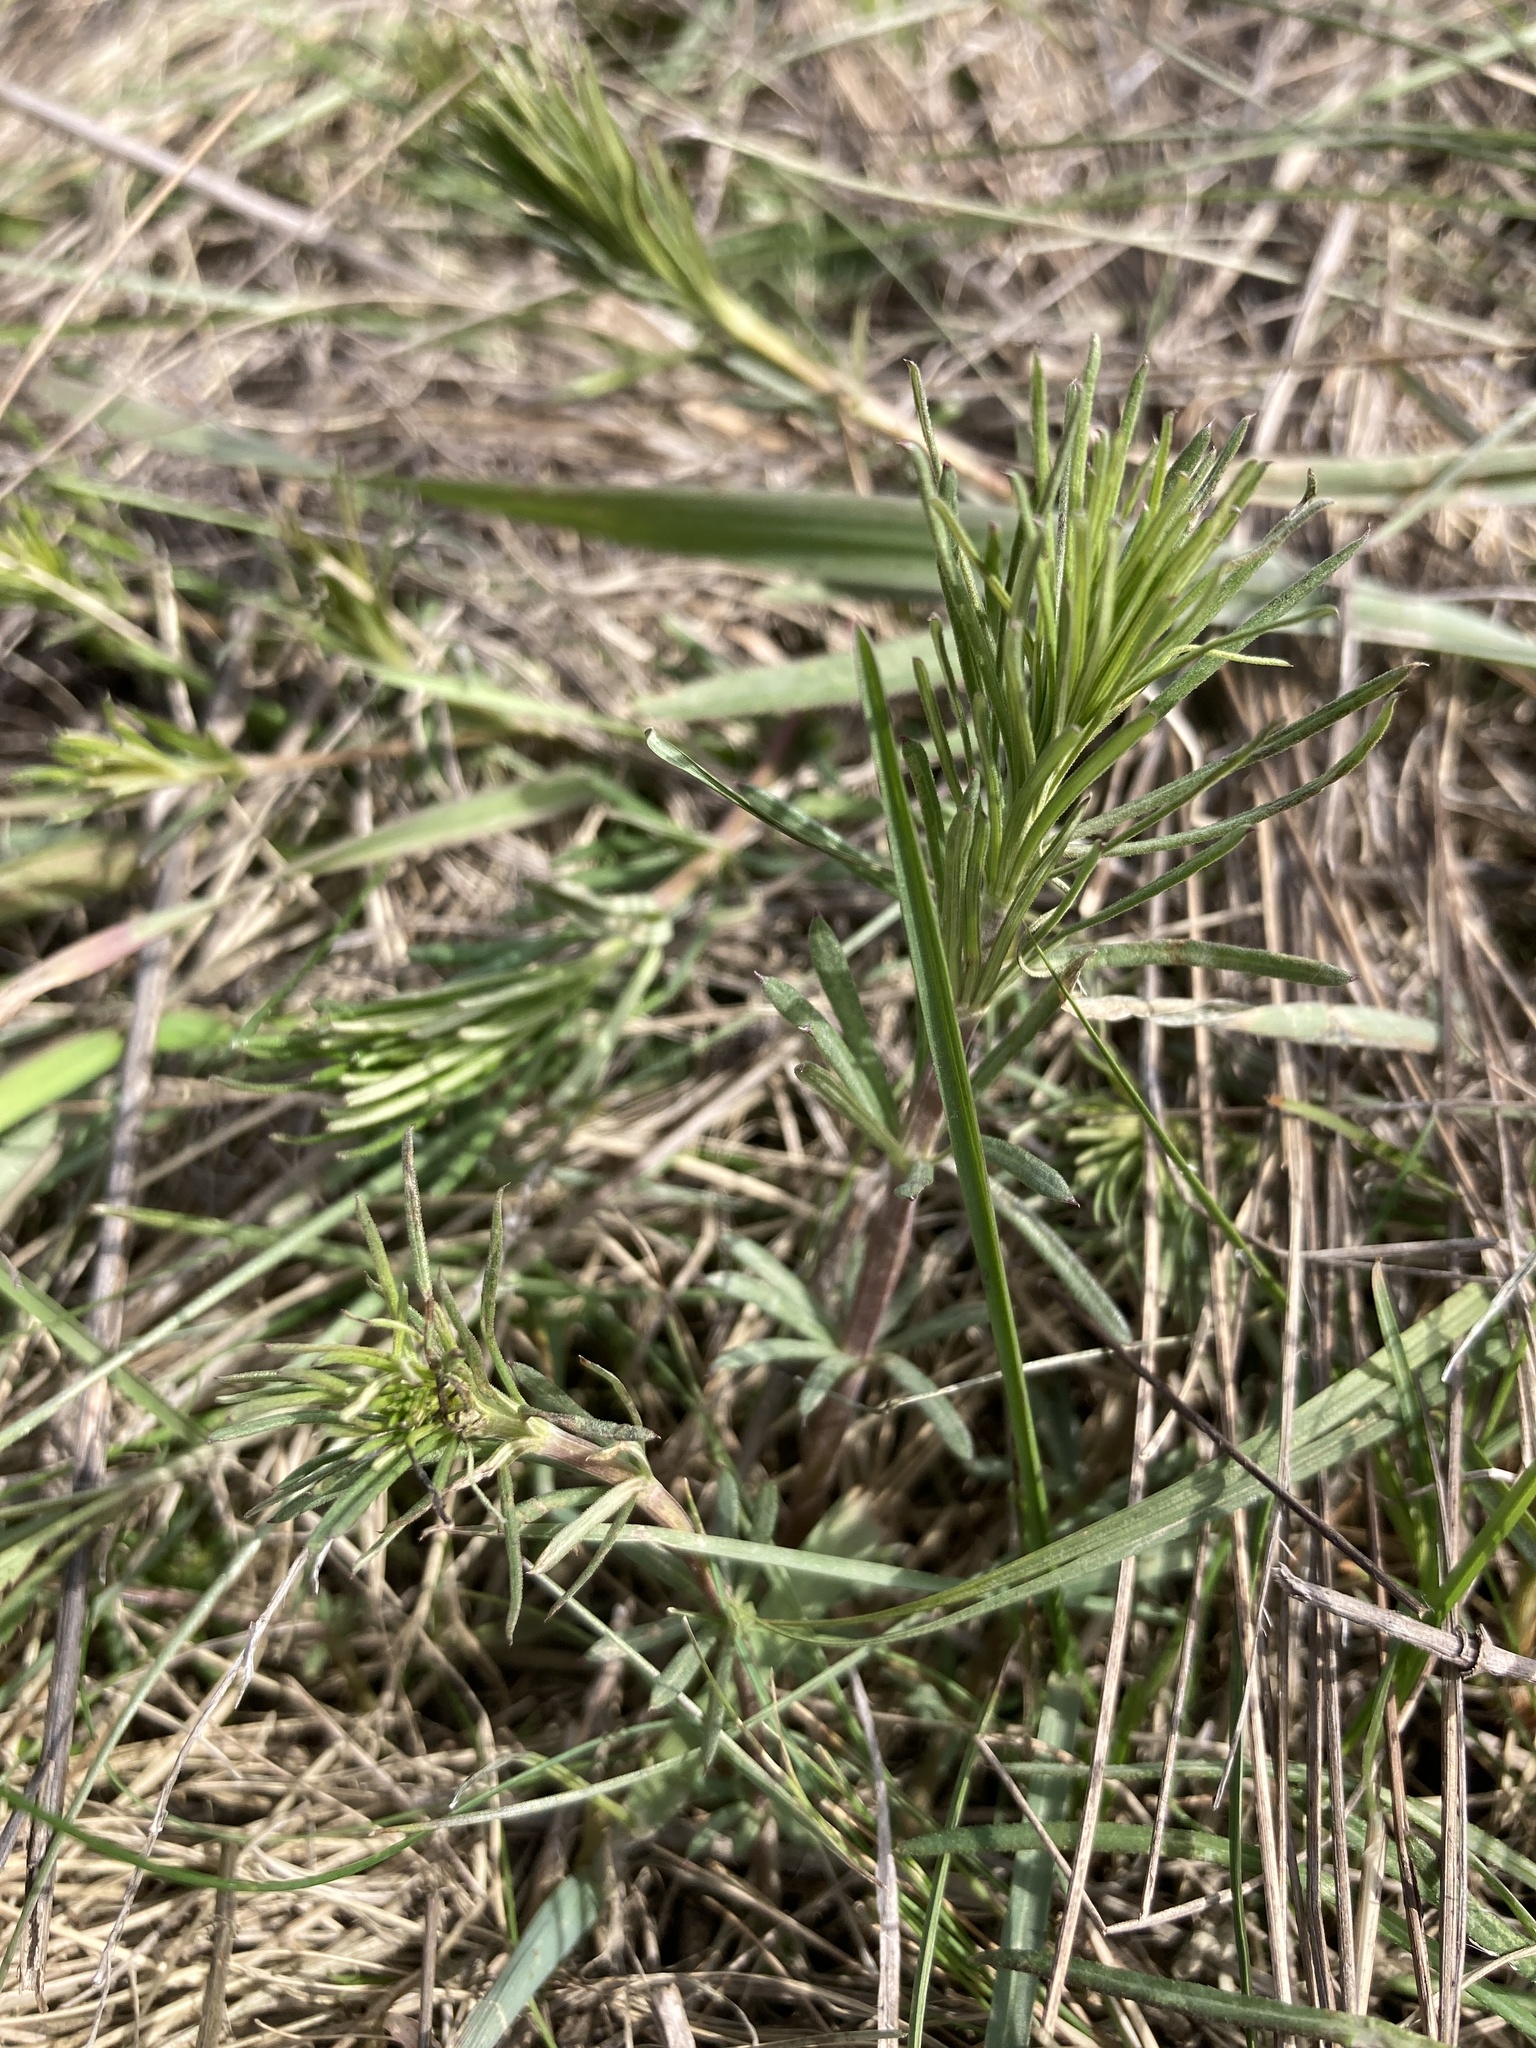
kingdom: Plantae
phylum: Tracheophyta
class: Magnoliopsida
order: Gentianales
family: Rubiaceae
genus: Galium
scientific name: Galium verum
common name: Lady's bedstraw
